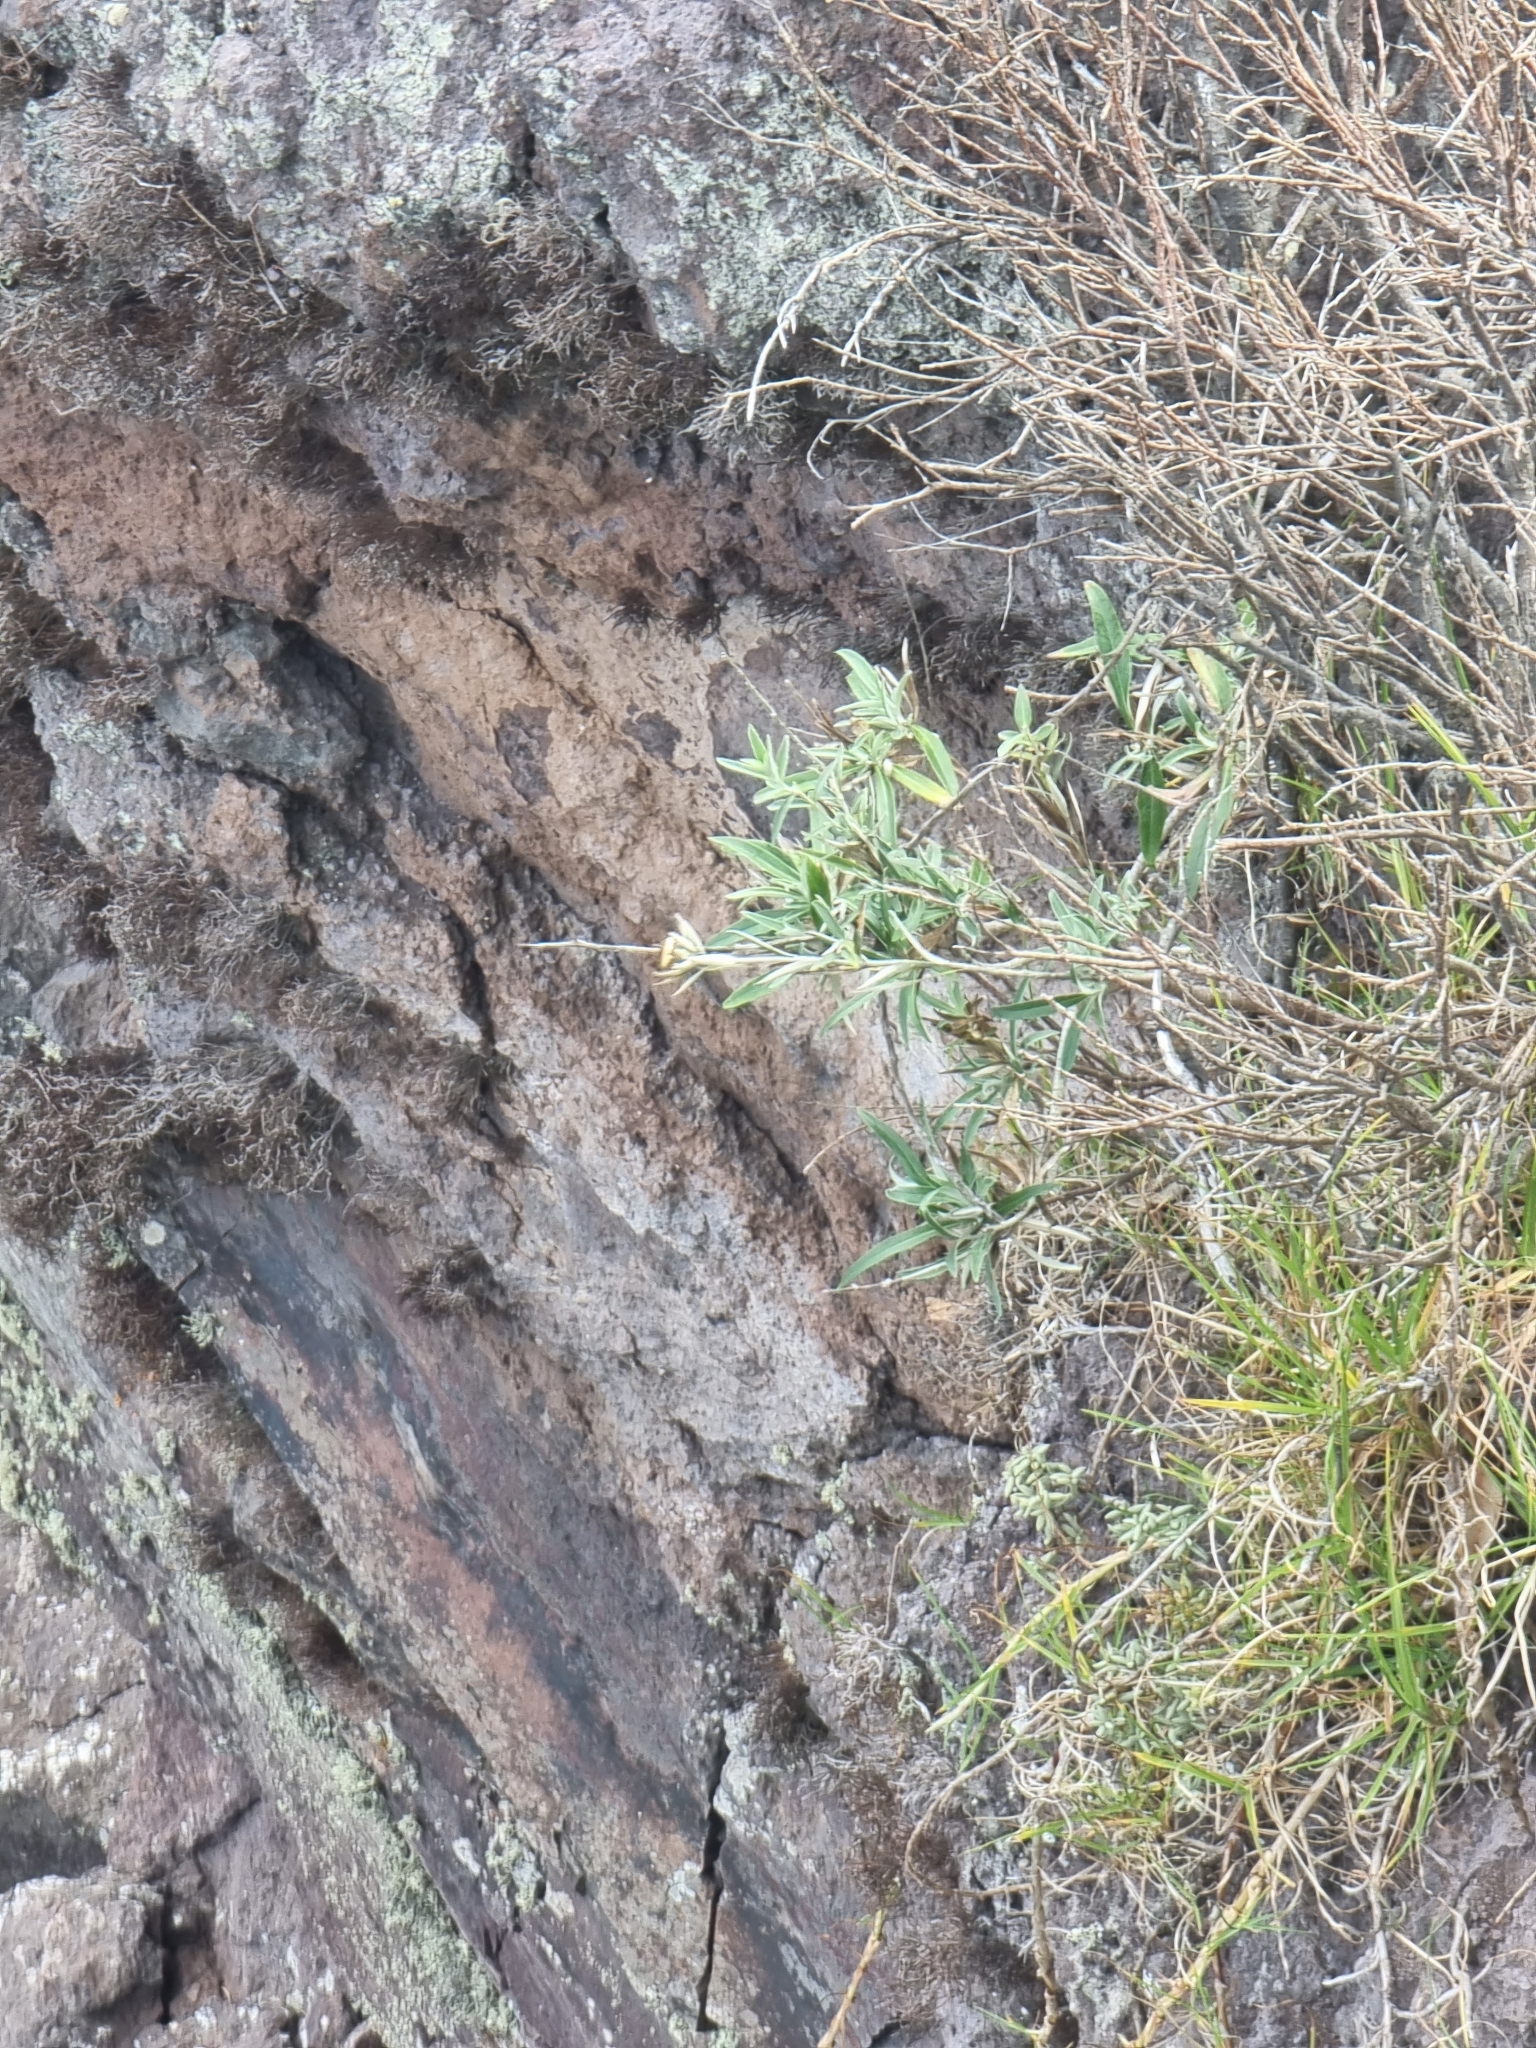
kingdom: Plantae
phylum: Tracheophyta
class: Magnoliopsida
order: Asterales
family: Asteraceae
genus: Carlina
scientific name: Carlina salicifolia
